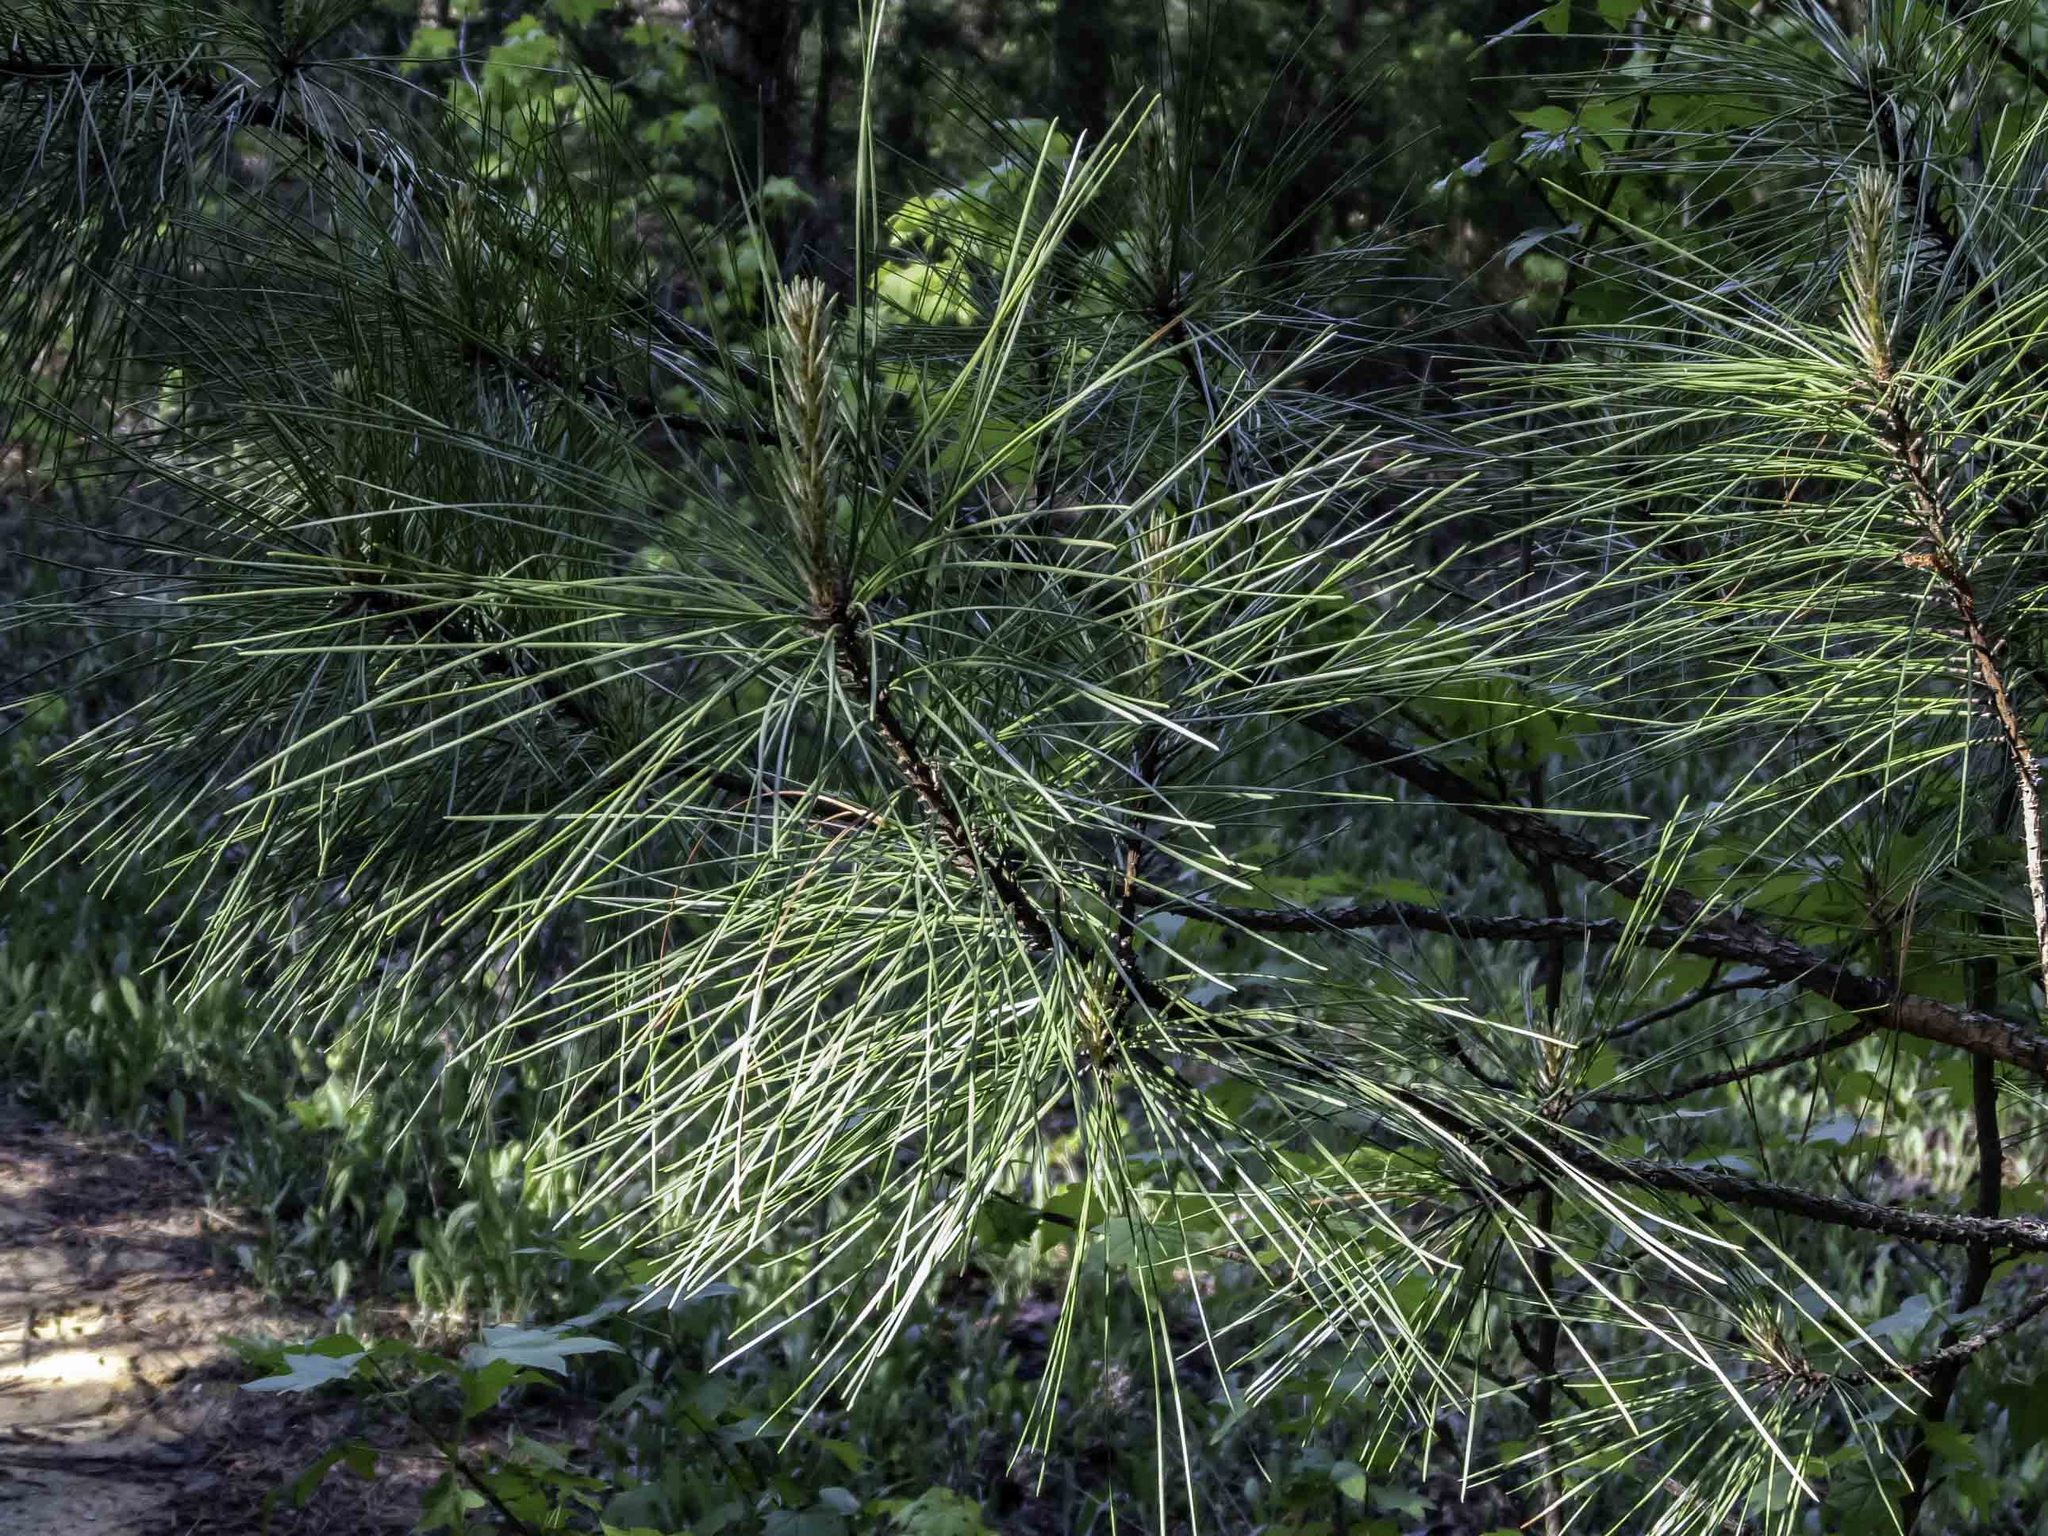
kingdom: Plantae
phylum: Tracheophyta
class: Pinopsida
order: Pinales
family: Pinaceae
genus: Pinus
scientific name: Pinus taeda
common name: Loblolly pine
